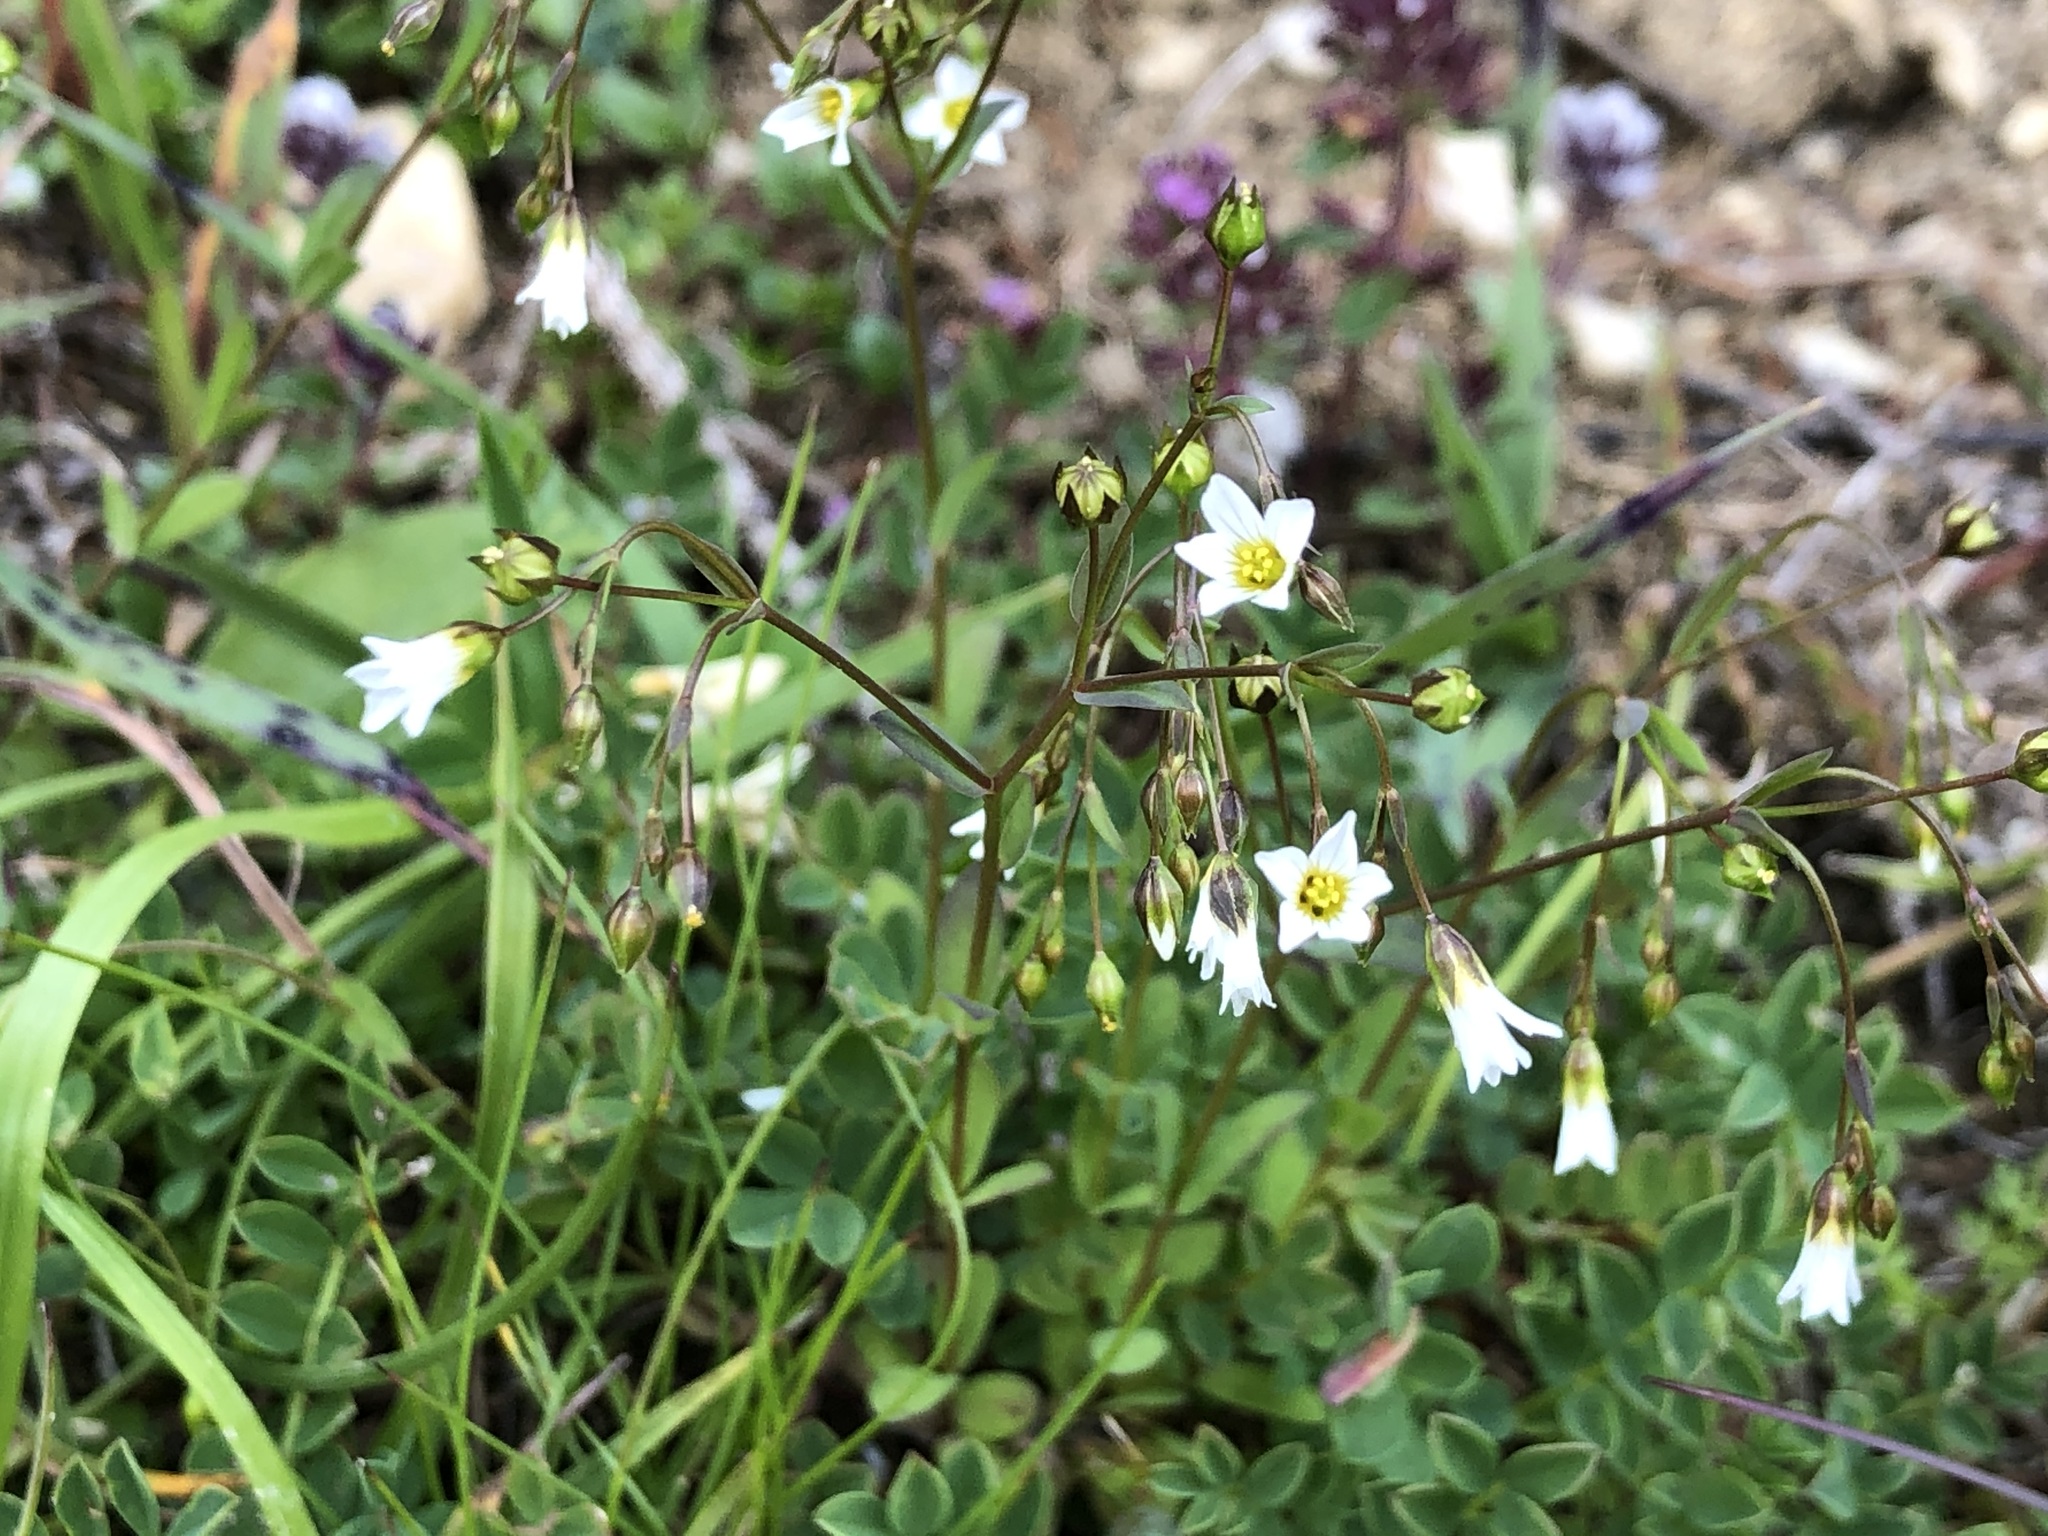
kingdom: Plantae
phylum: Tracheophyta
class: Magnoliopsida
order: Malpighiales
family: Linaceae
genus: Linum
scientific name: Linum catharticum
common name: Fairy flax
